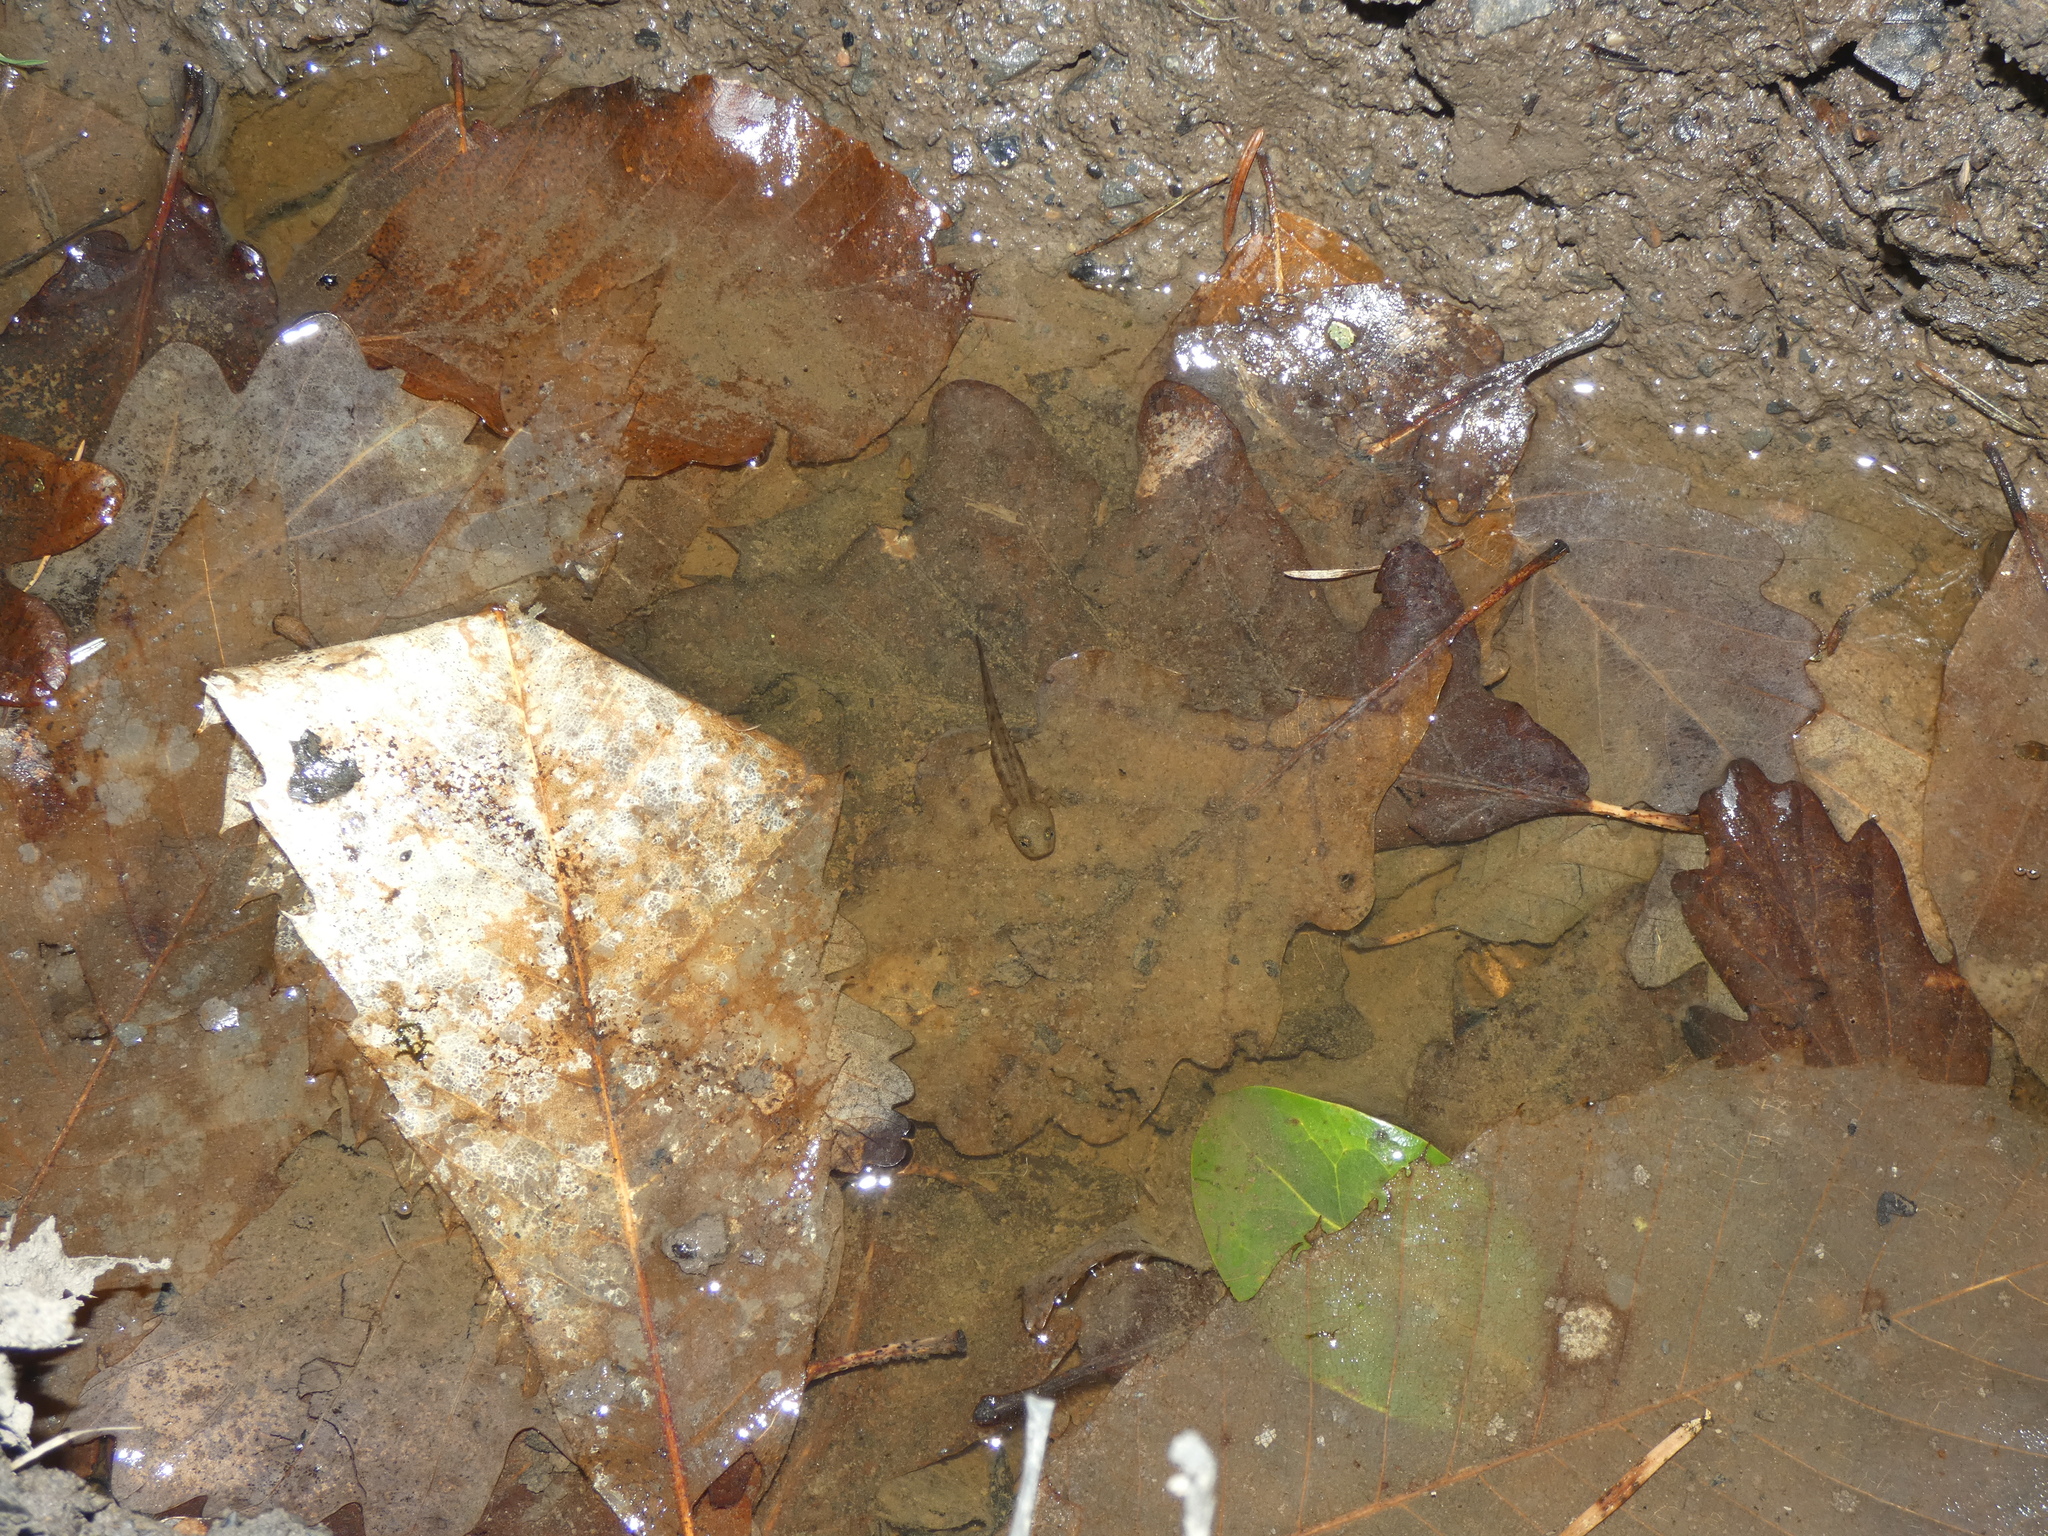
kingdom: Animalia
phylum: Chordata
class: Amphibia
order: Caudata
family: Salamandridae
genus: Salamandra
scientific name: Salamandra salamandra
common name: Fire salamander
